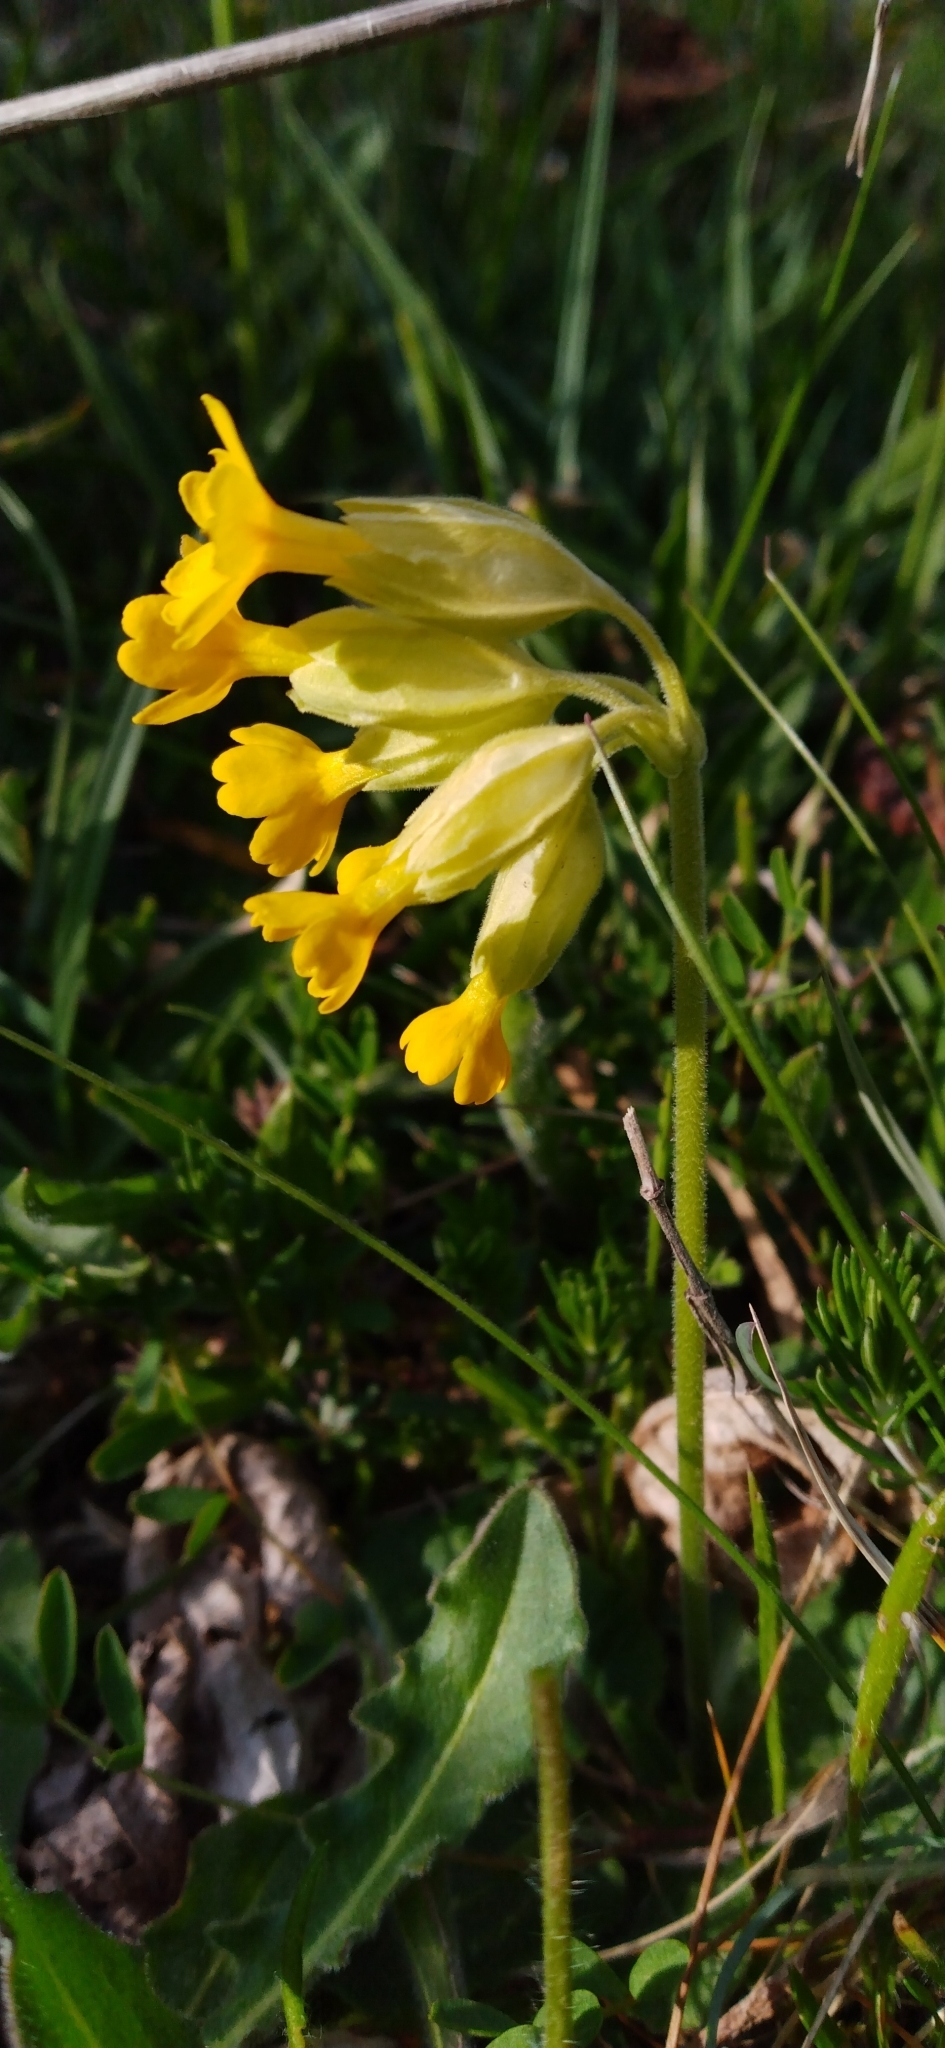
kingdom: Plantae
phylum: Tracheophyta
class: Magnoliopsida
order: Ericales
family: Primulaceae
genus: Primula
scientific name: Primula veris
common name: Cowslip
